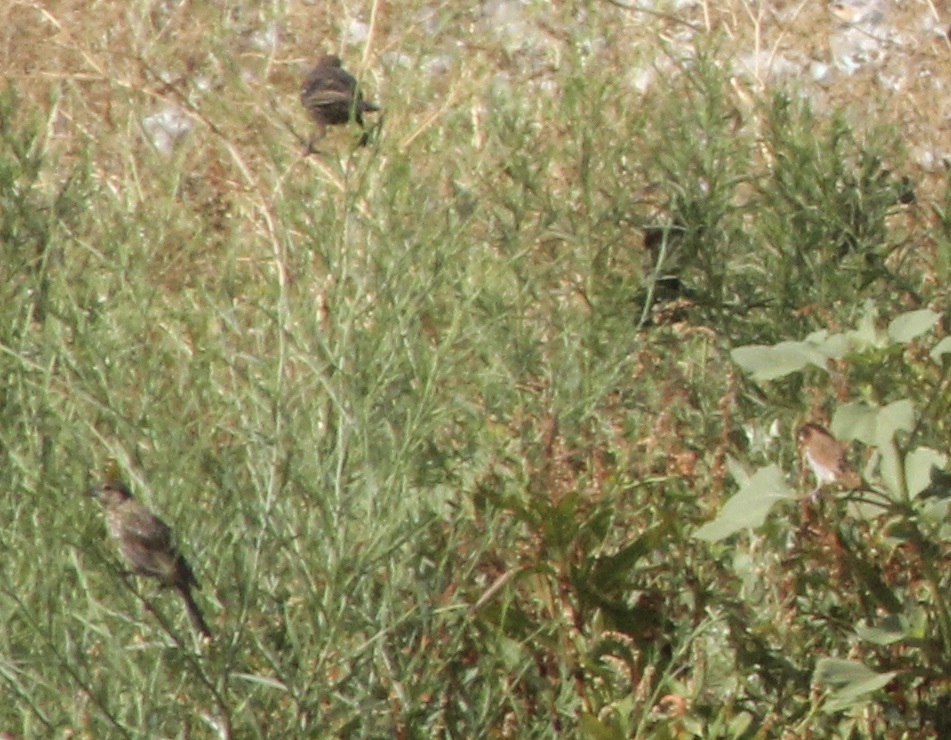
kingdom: Animalia
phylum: Chordata
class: Aves
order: Passeriformes
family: Estrildidae
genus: Lonchura
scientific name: Lonchura punctulata
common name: Scaly-breasted munia
